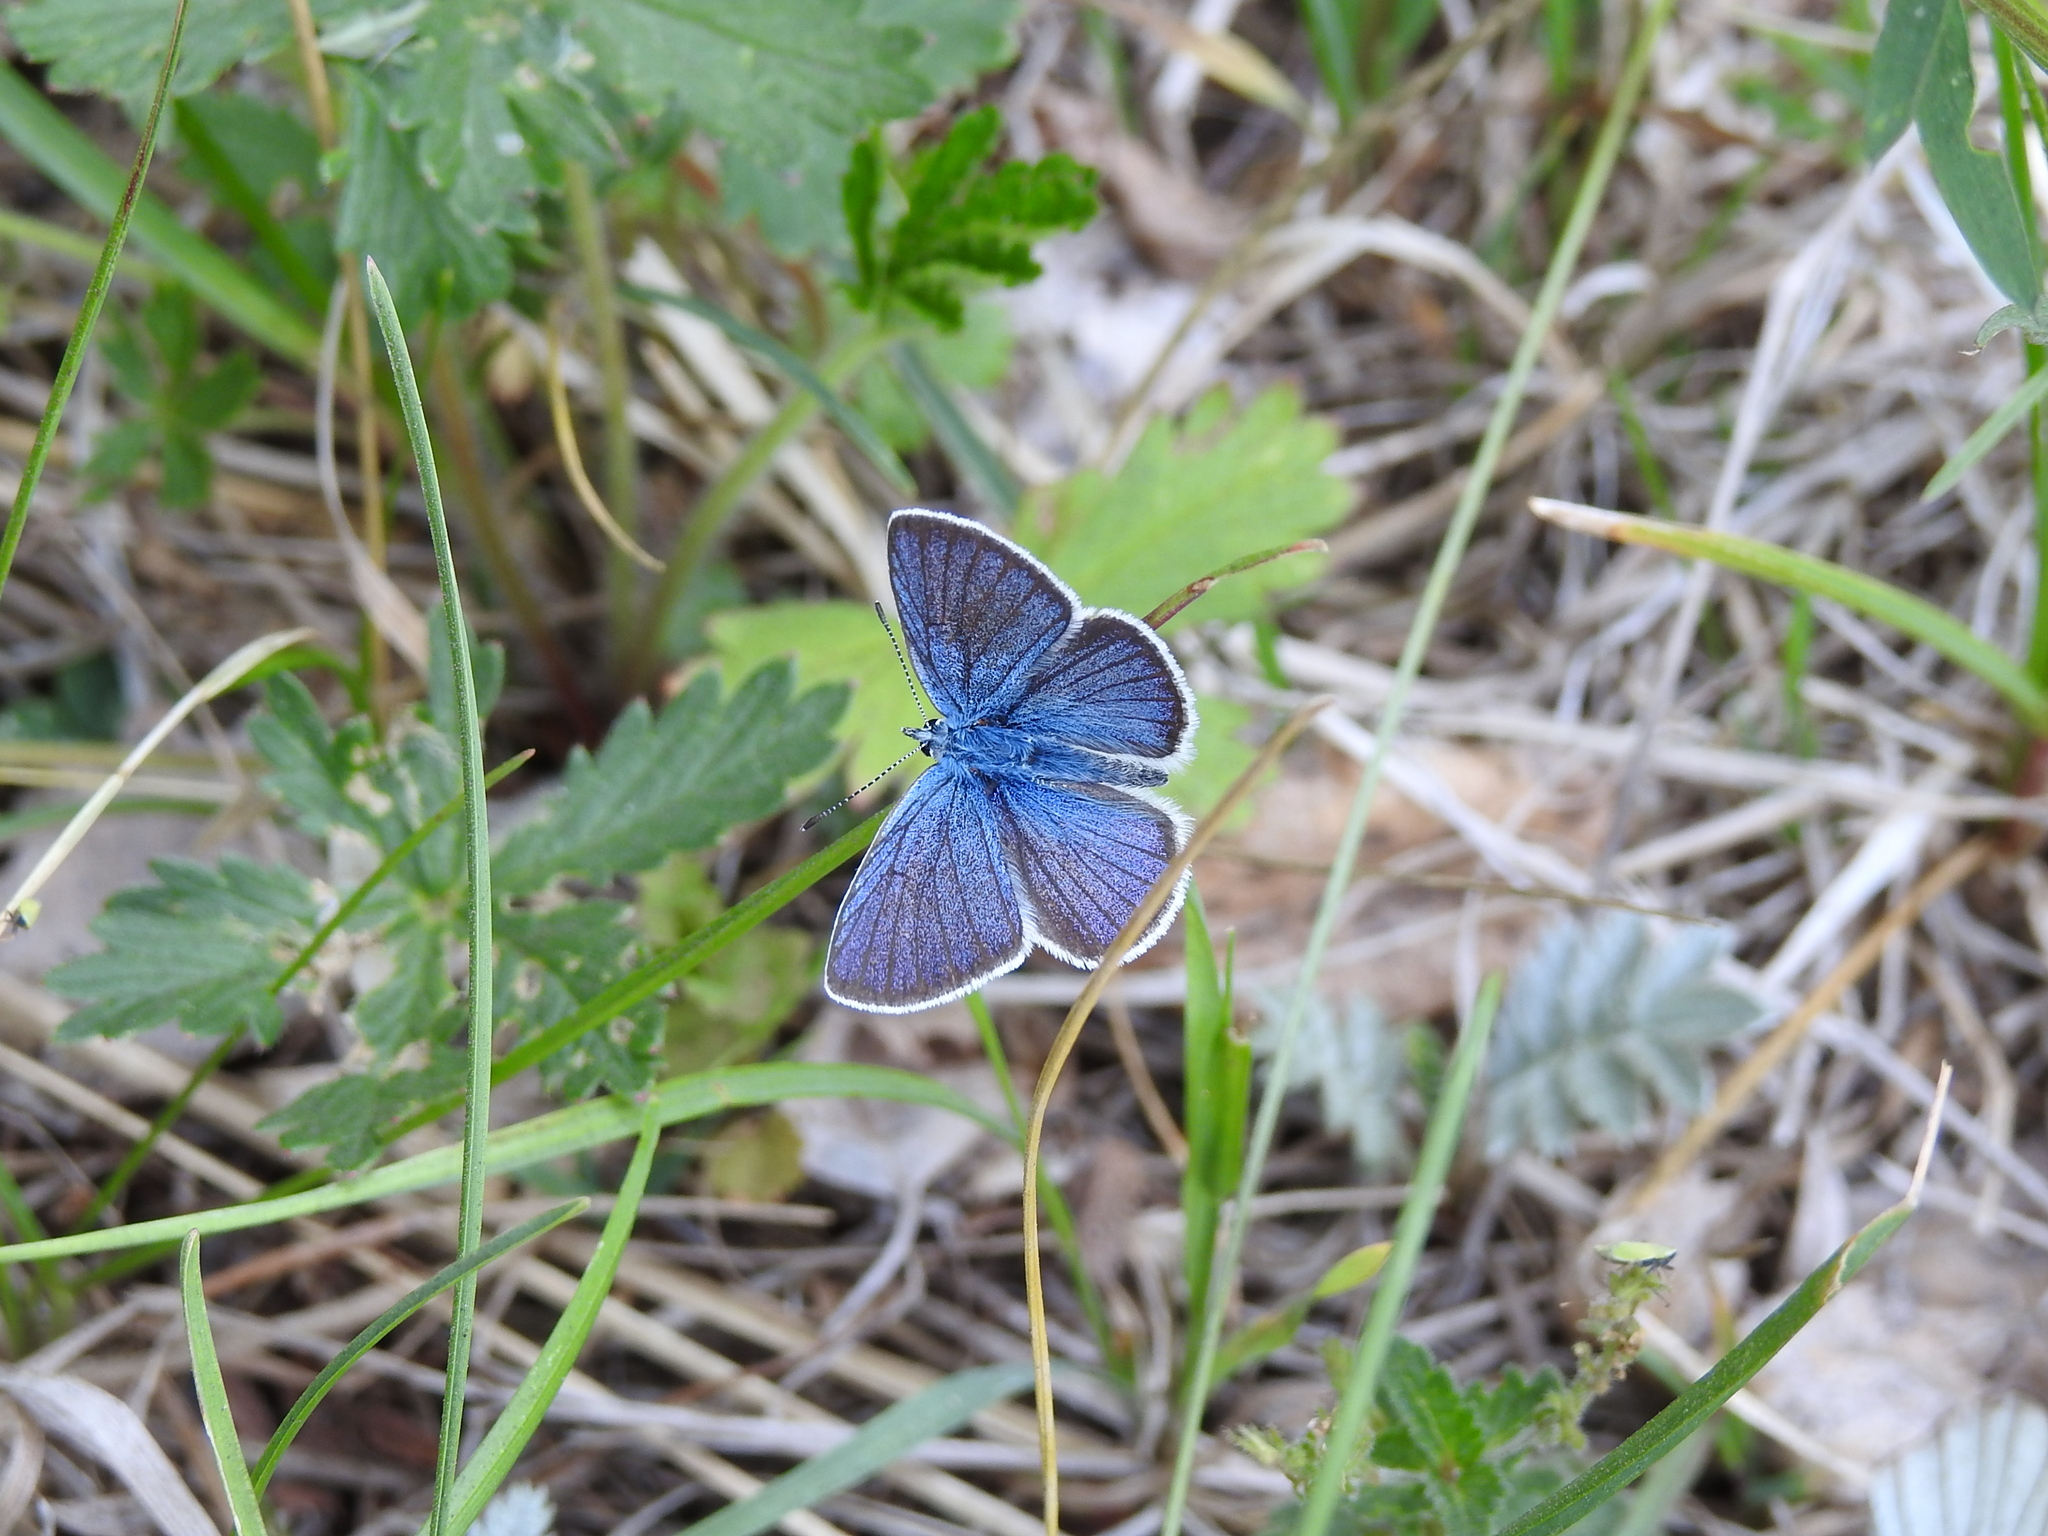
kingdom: Animalia
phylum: Arthropoda
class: Insecta
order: Lepidoptera
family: Lycaenidae
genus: Cyaniris
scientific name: Cyaniris semiargus
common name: Mazarine blue
